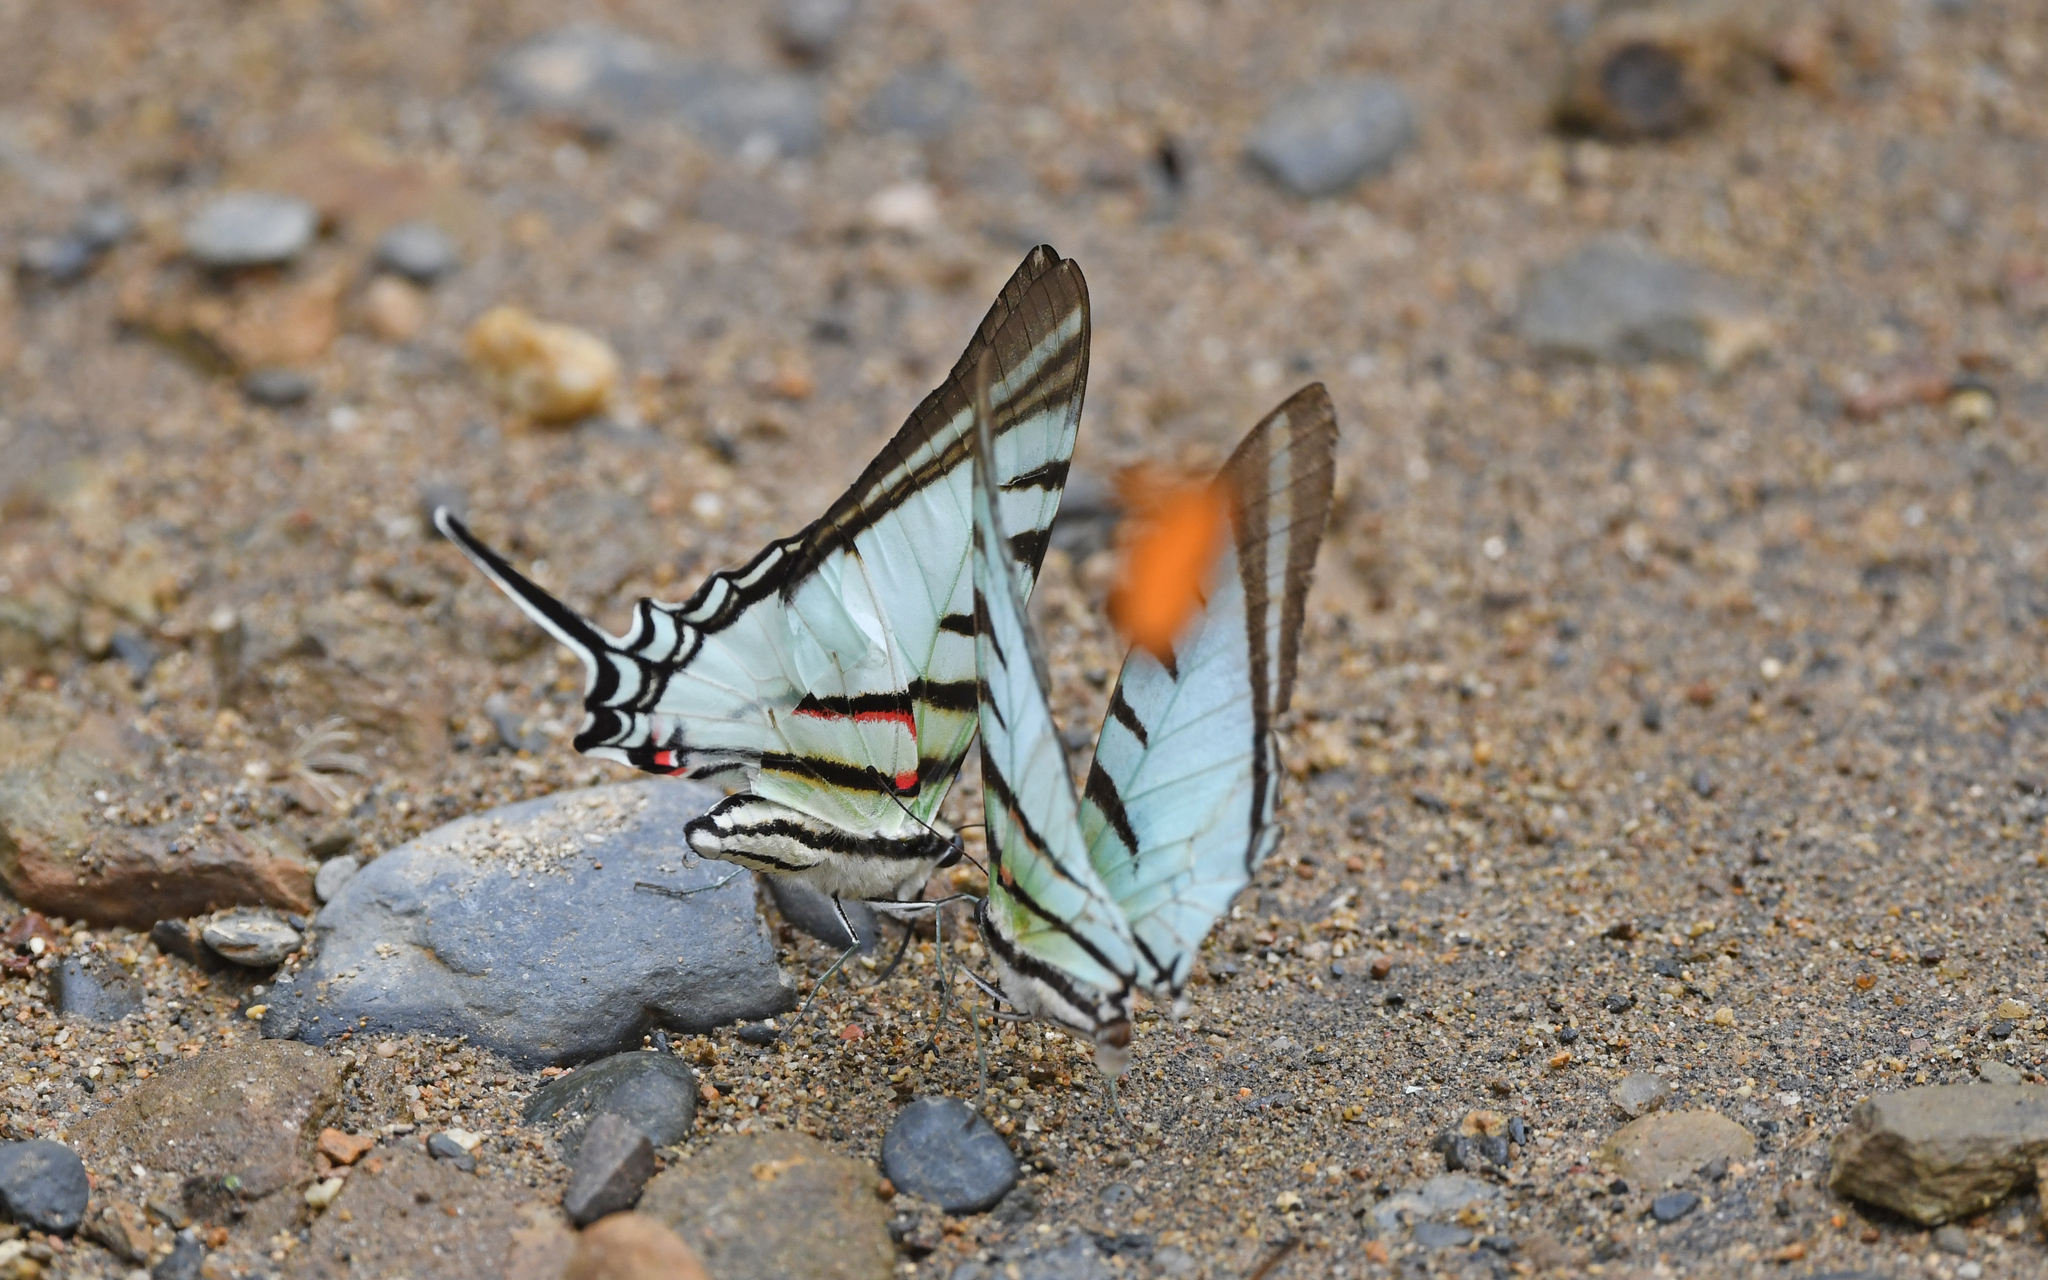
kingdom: Animalia
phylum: Arthropoda
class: Insecta
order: Lepidoptera
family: Papilionidae
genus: Eurytides
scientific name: Eurytides
